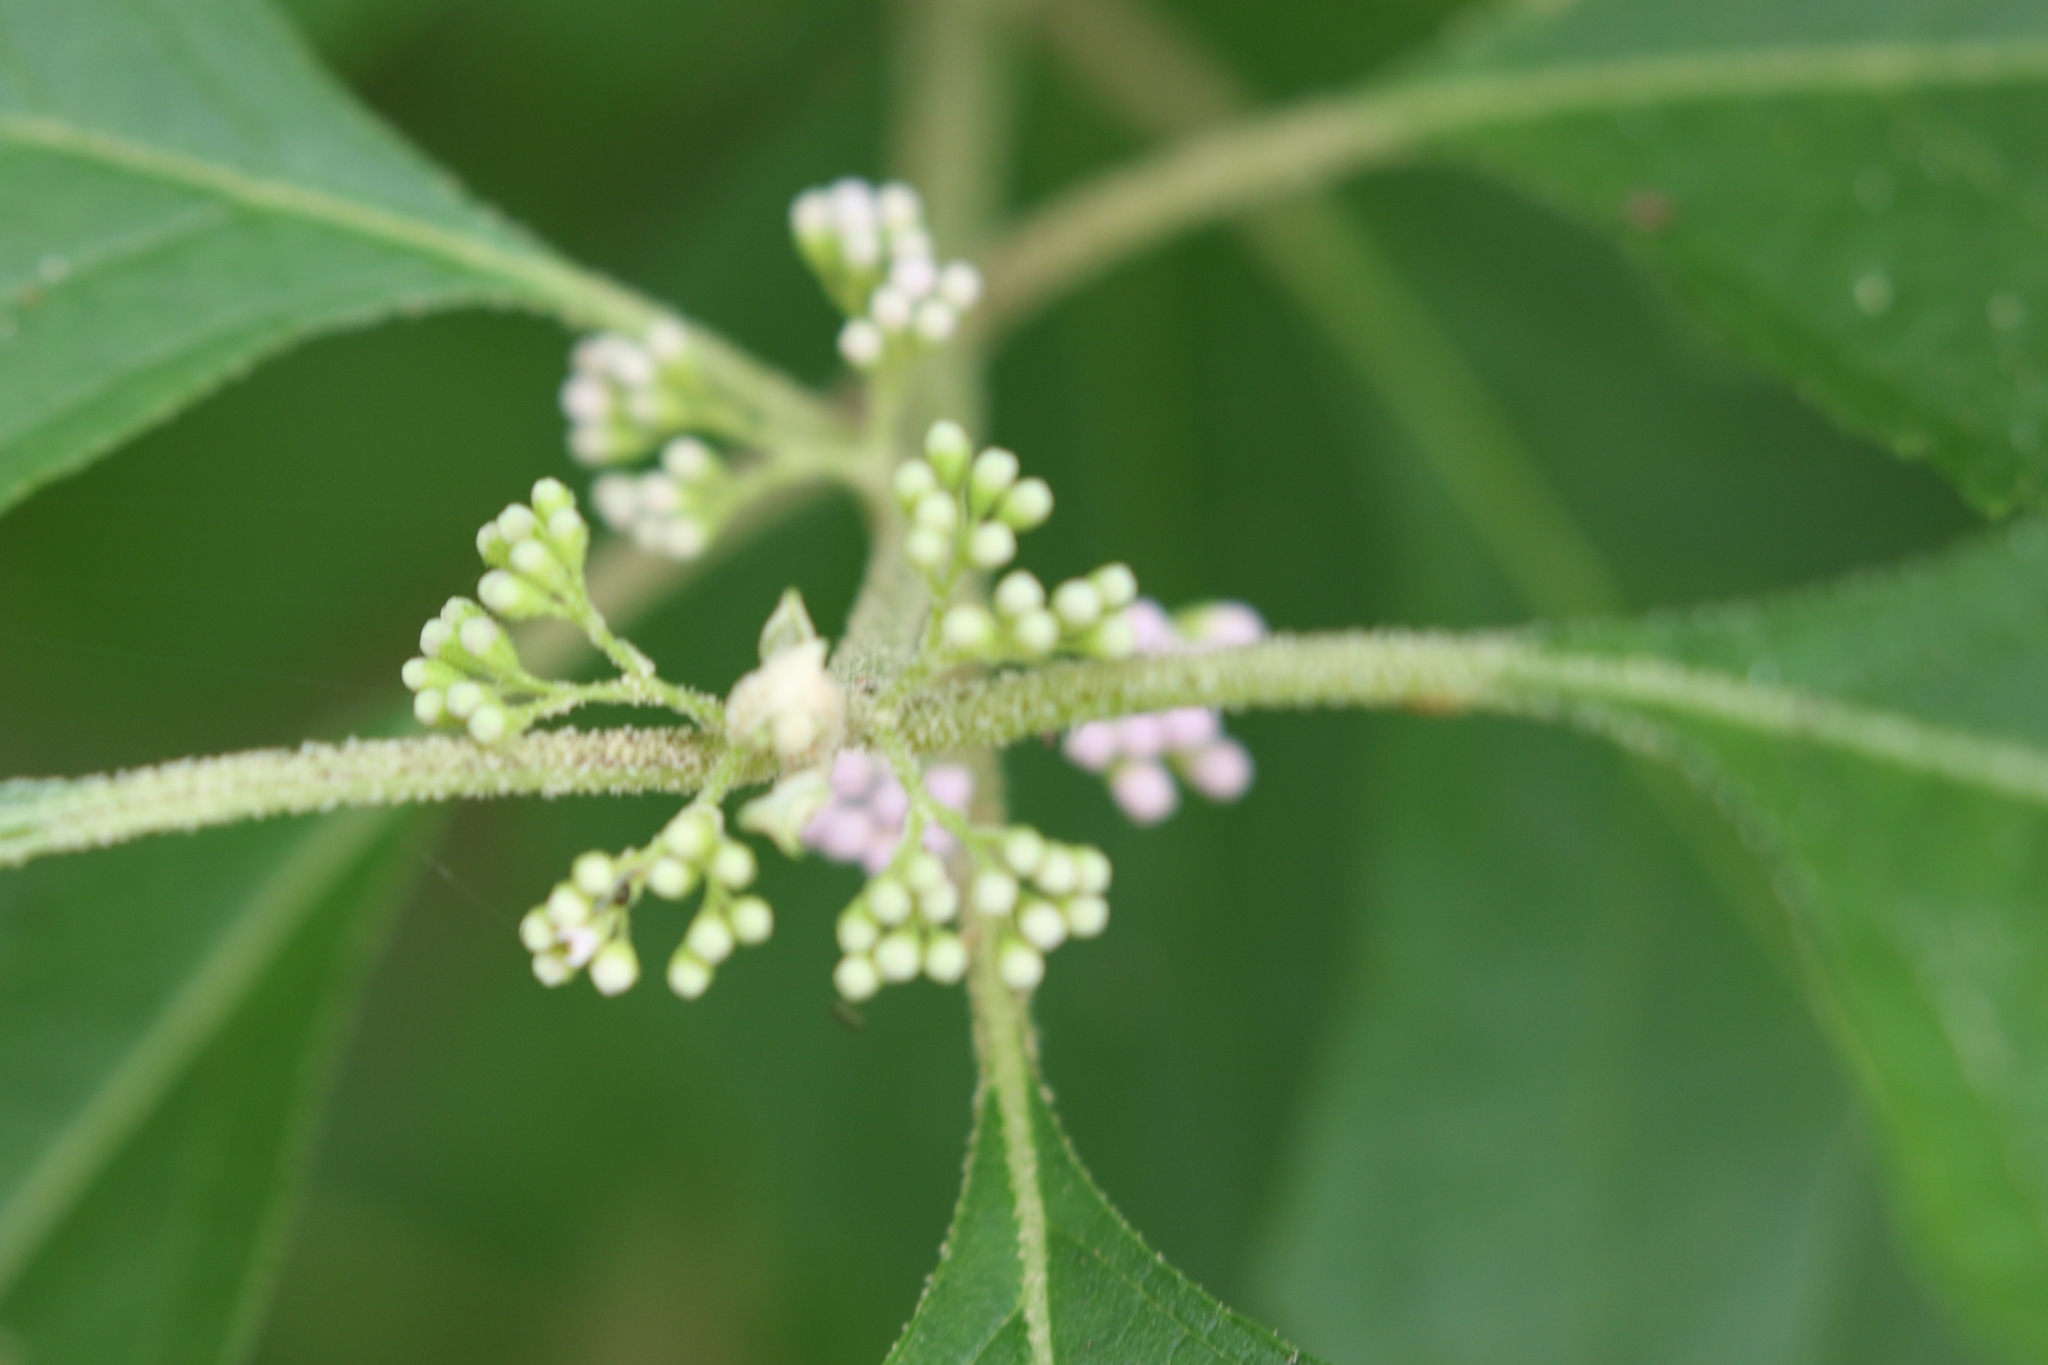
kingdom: Plantae
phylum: Tracheophyta
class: Magnoliopsida
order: Lamiales
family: Lamiaceae
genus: Callicarpa
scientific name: Callicarpa americana
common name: American beautyberry
